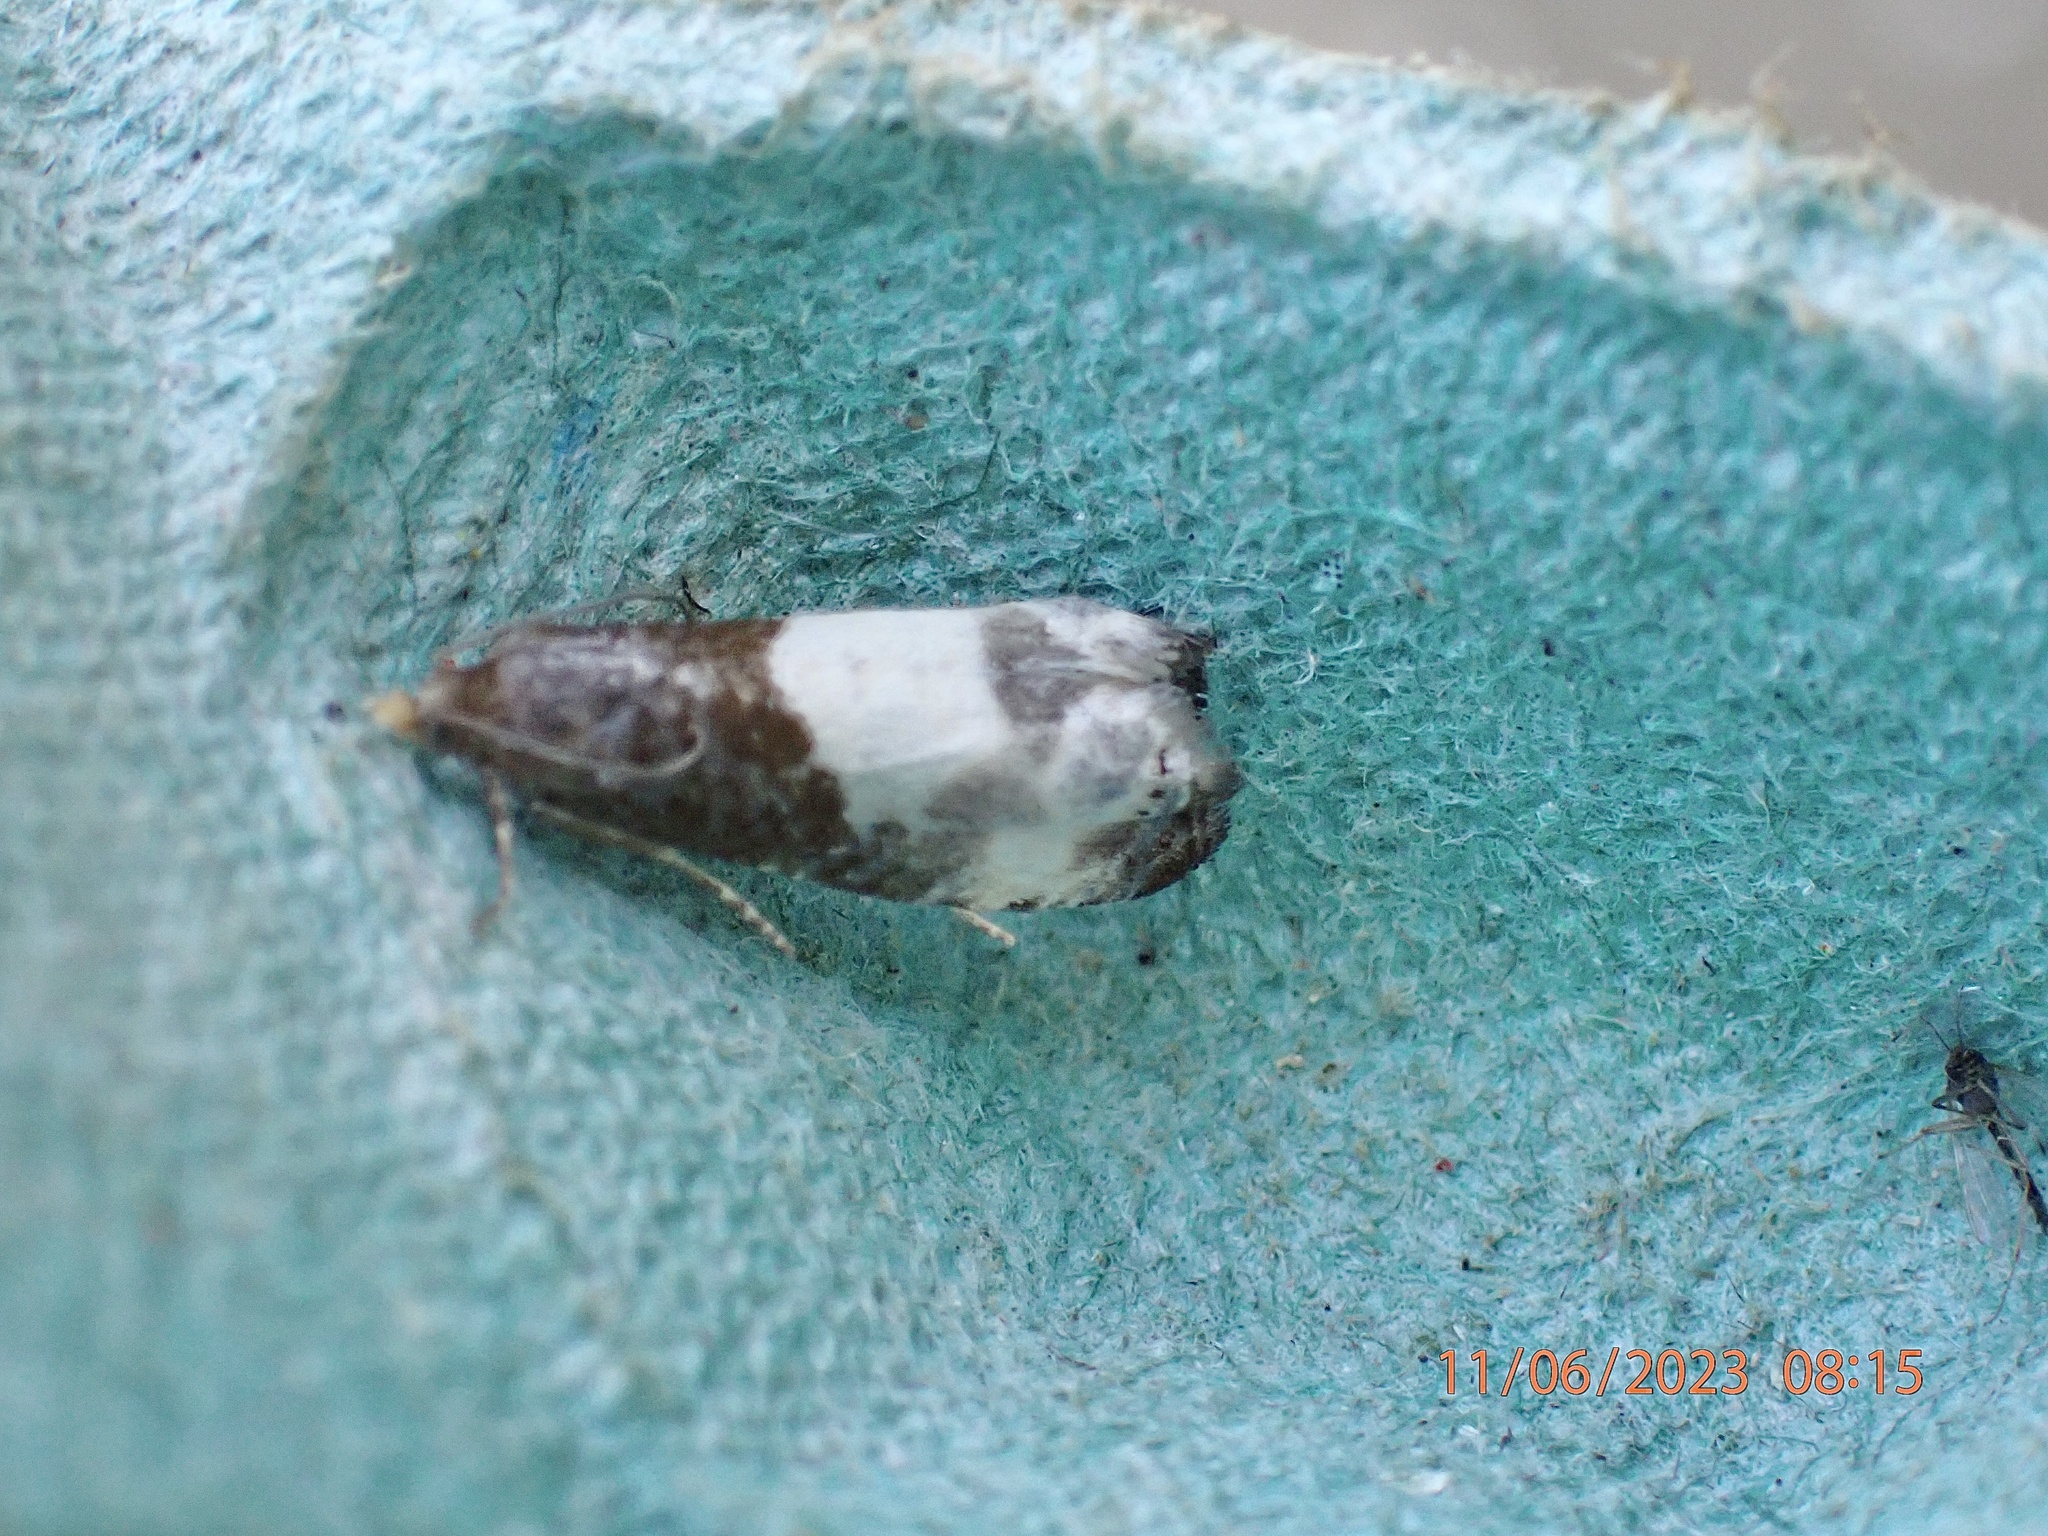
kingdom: Animalia
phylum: Arthropoda
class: Insecta
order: Lepidoptera
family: Tortricidae
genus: Notocelia
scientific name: Notocelia cynosbatella
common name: Yellow-faced bell moth
